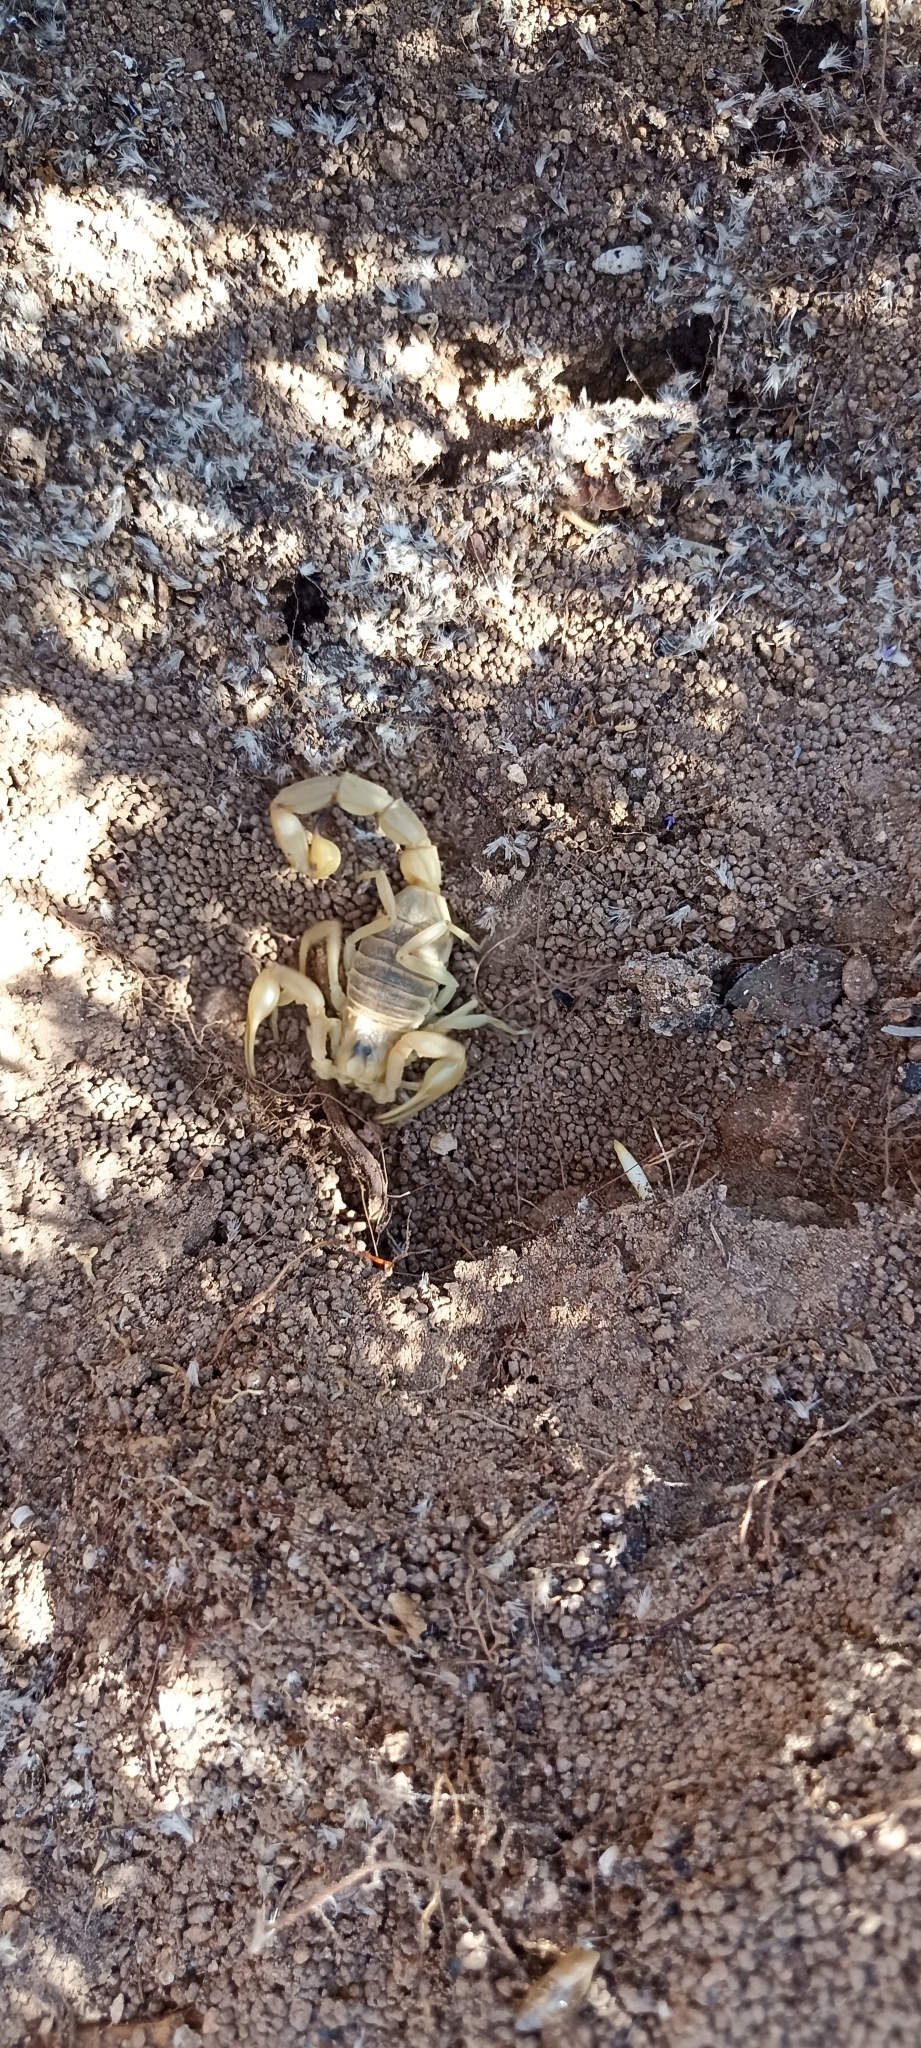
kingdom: Animalia
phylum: Arthropoda
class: Arachnida
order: Scorpiones
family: Buthidae
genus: Buthus
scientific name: Buthus occitanus
